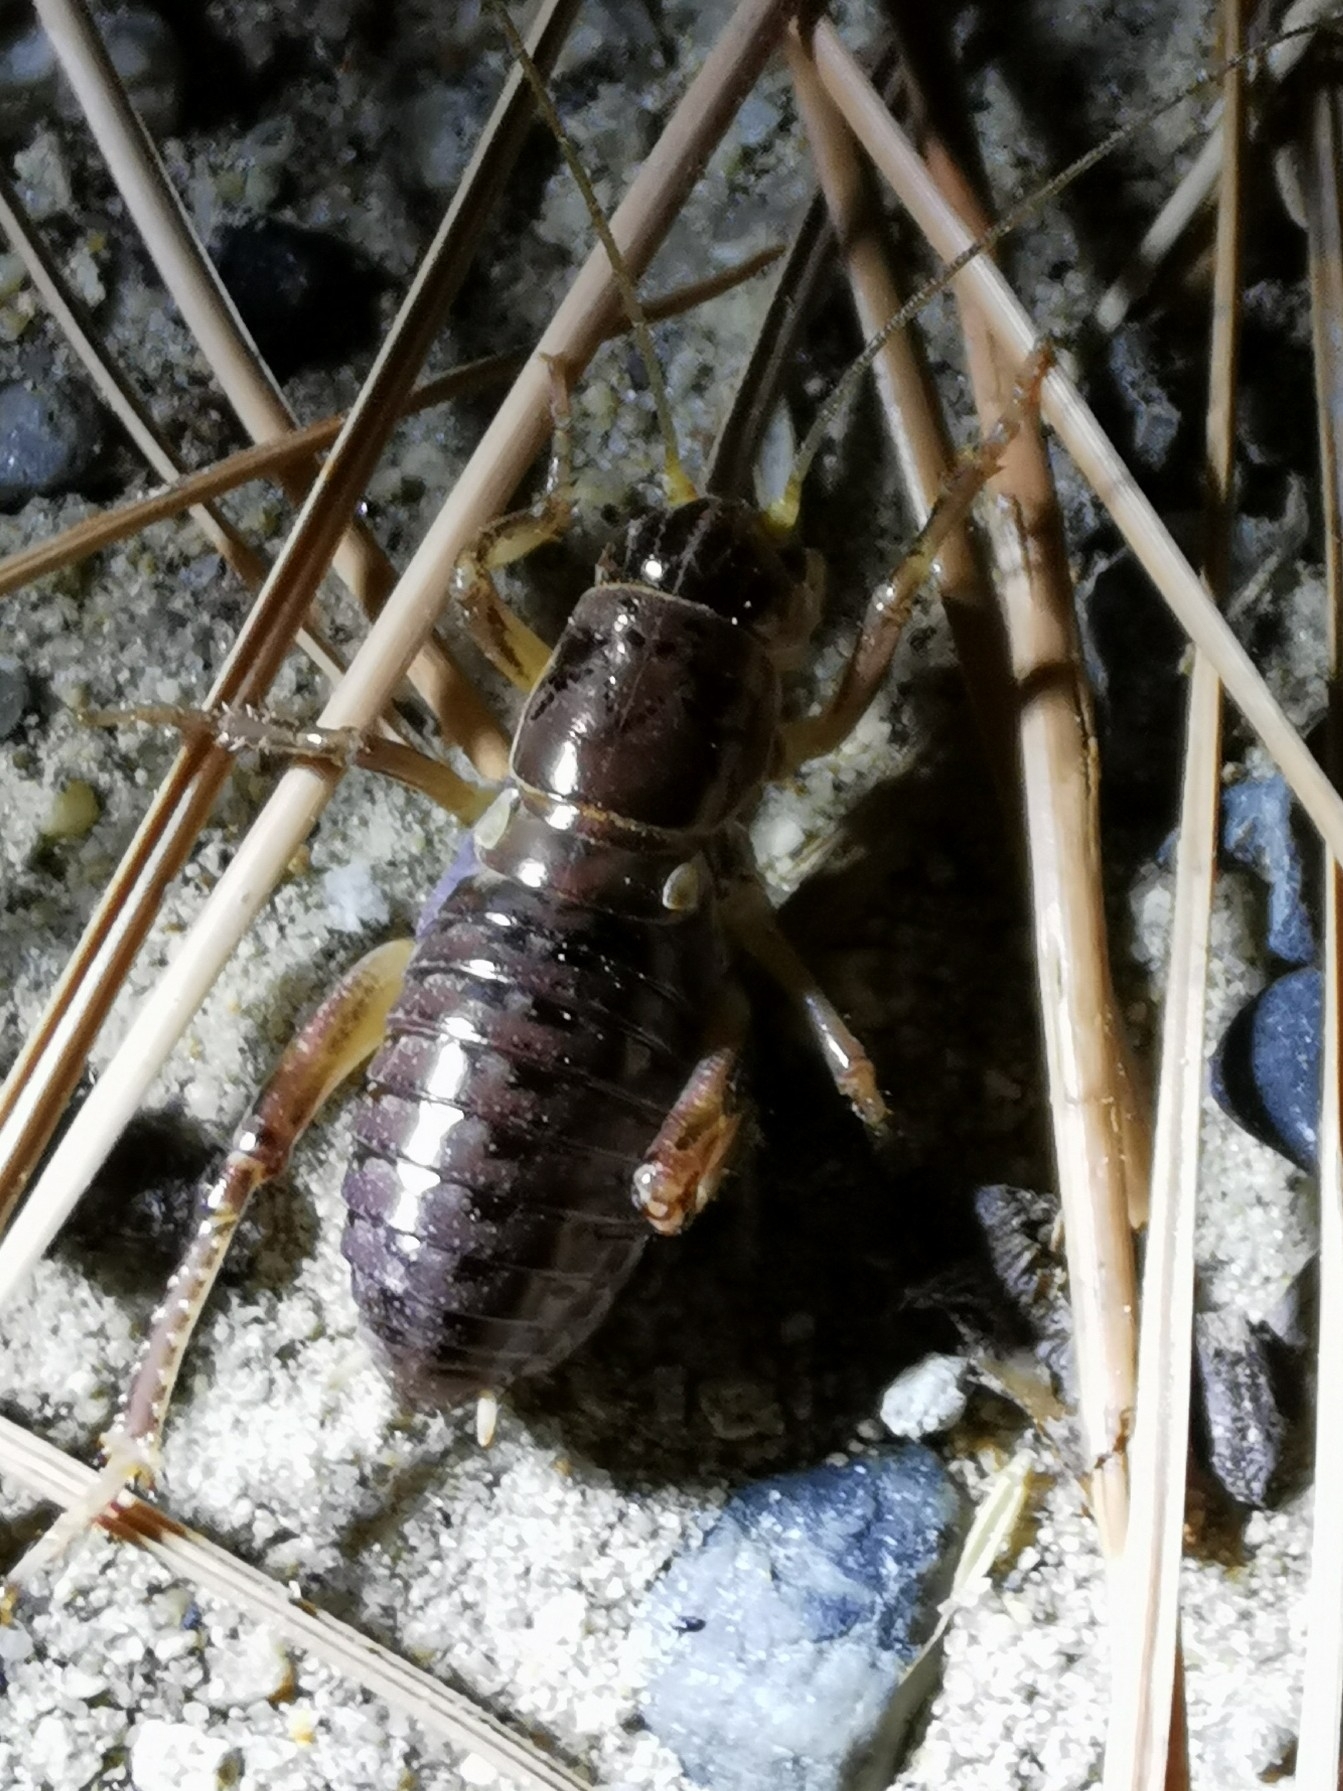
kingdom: Animalia
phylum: Arthropoda
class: Insecta
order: Orthoptera
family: Prophalangopsidae
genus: Cyphoderris
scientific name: Cyphoderris buckelli
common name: Buckell’s grig
